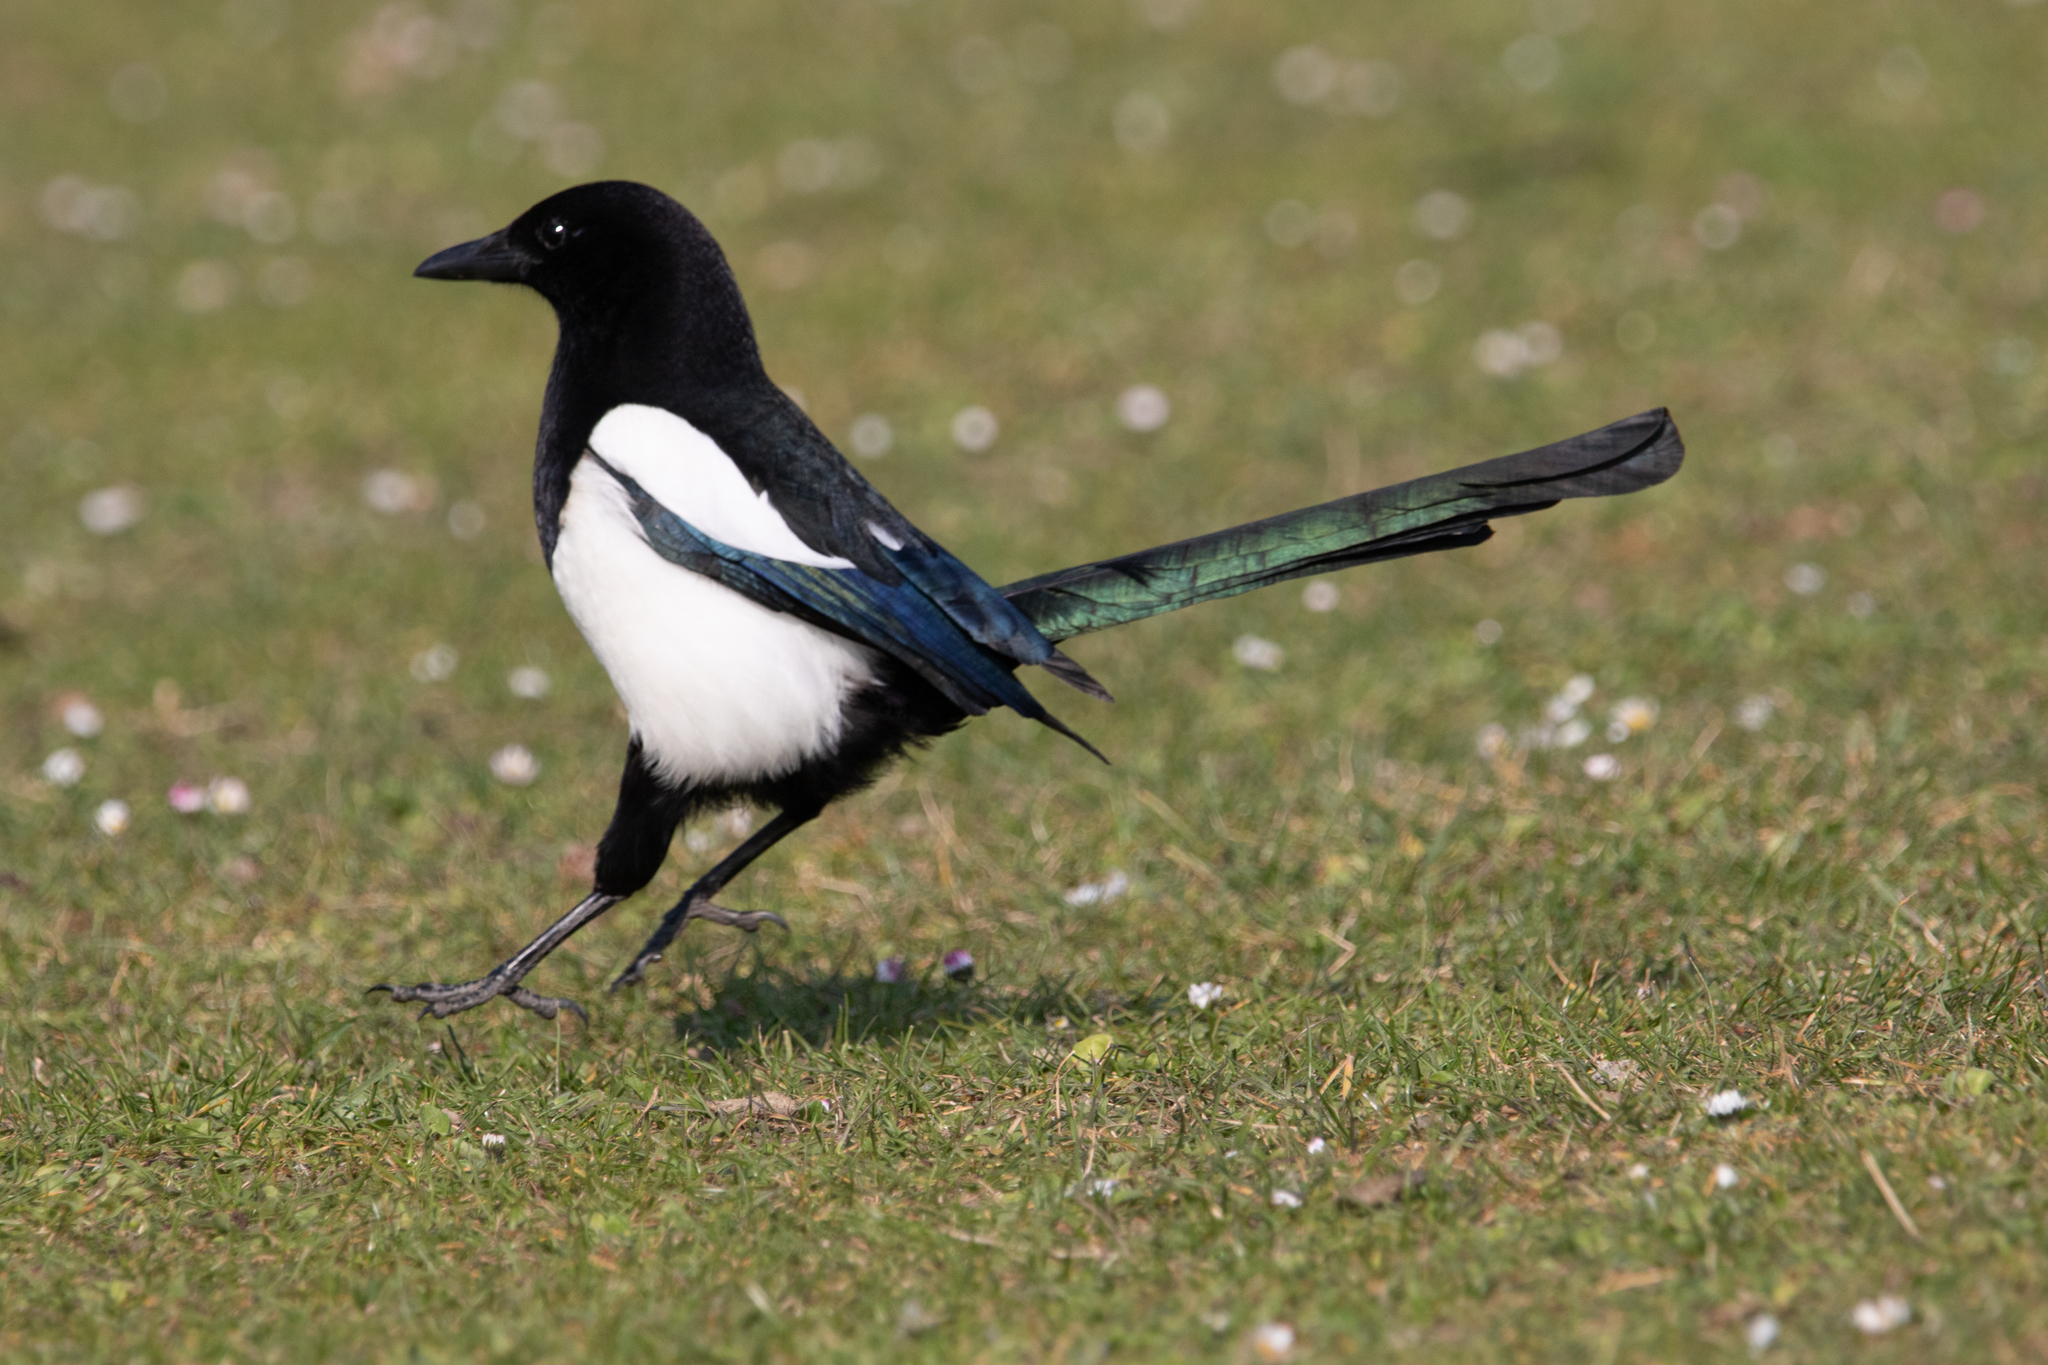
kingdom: Animalia
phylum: Chordata
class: Aves
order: Passeriformes
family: Corvidae
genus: Pica
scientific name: Pica pica
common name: Eurasian magpie
